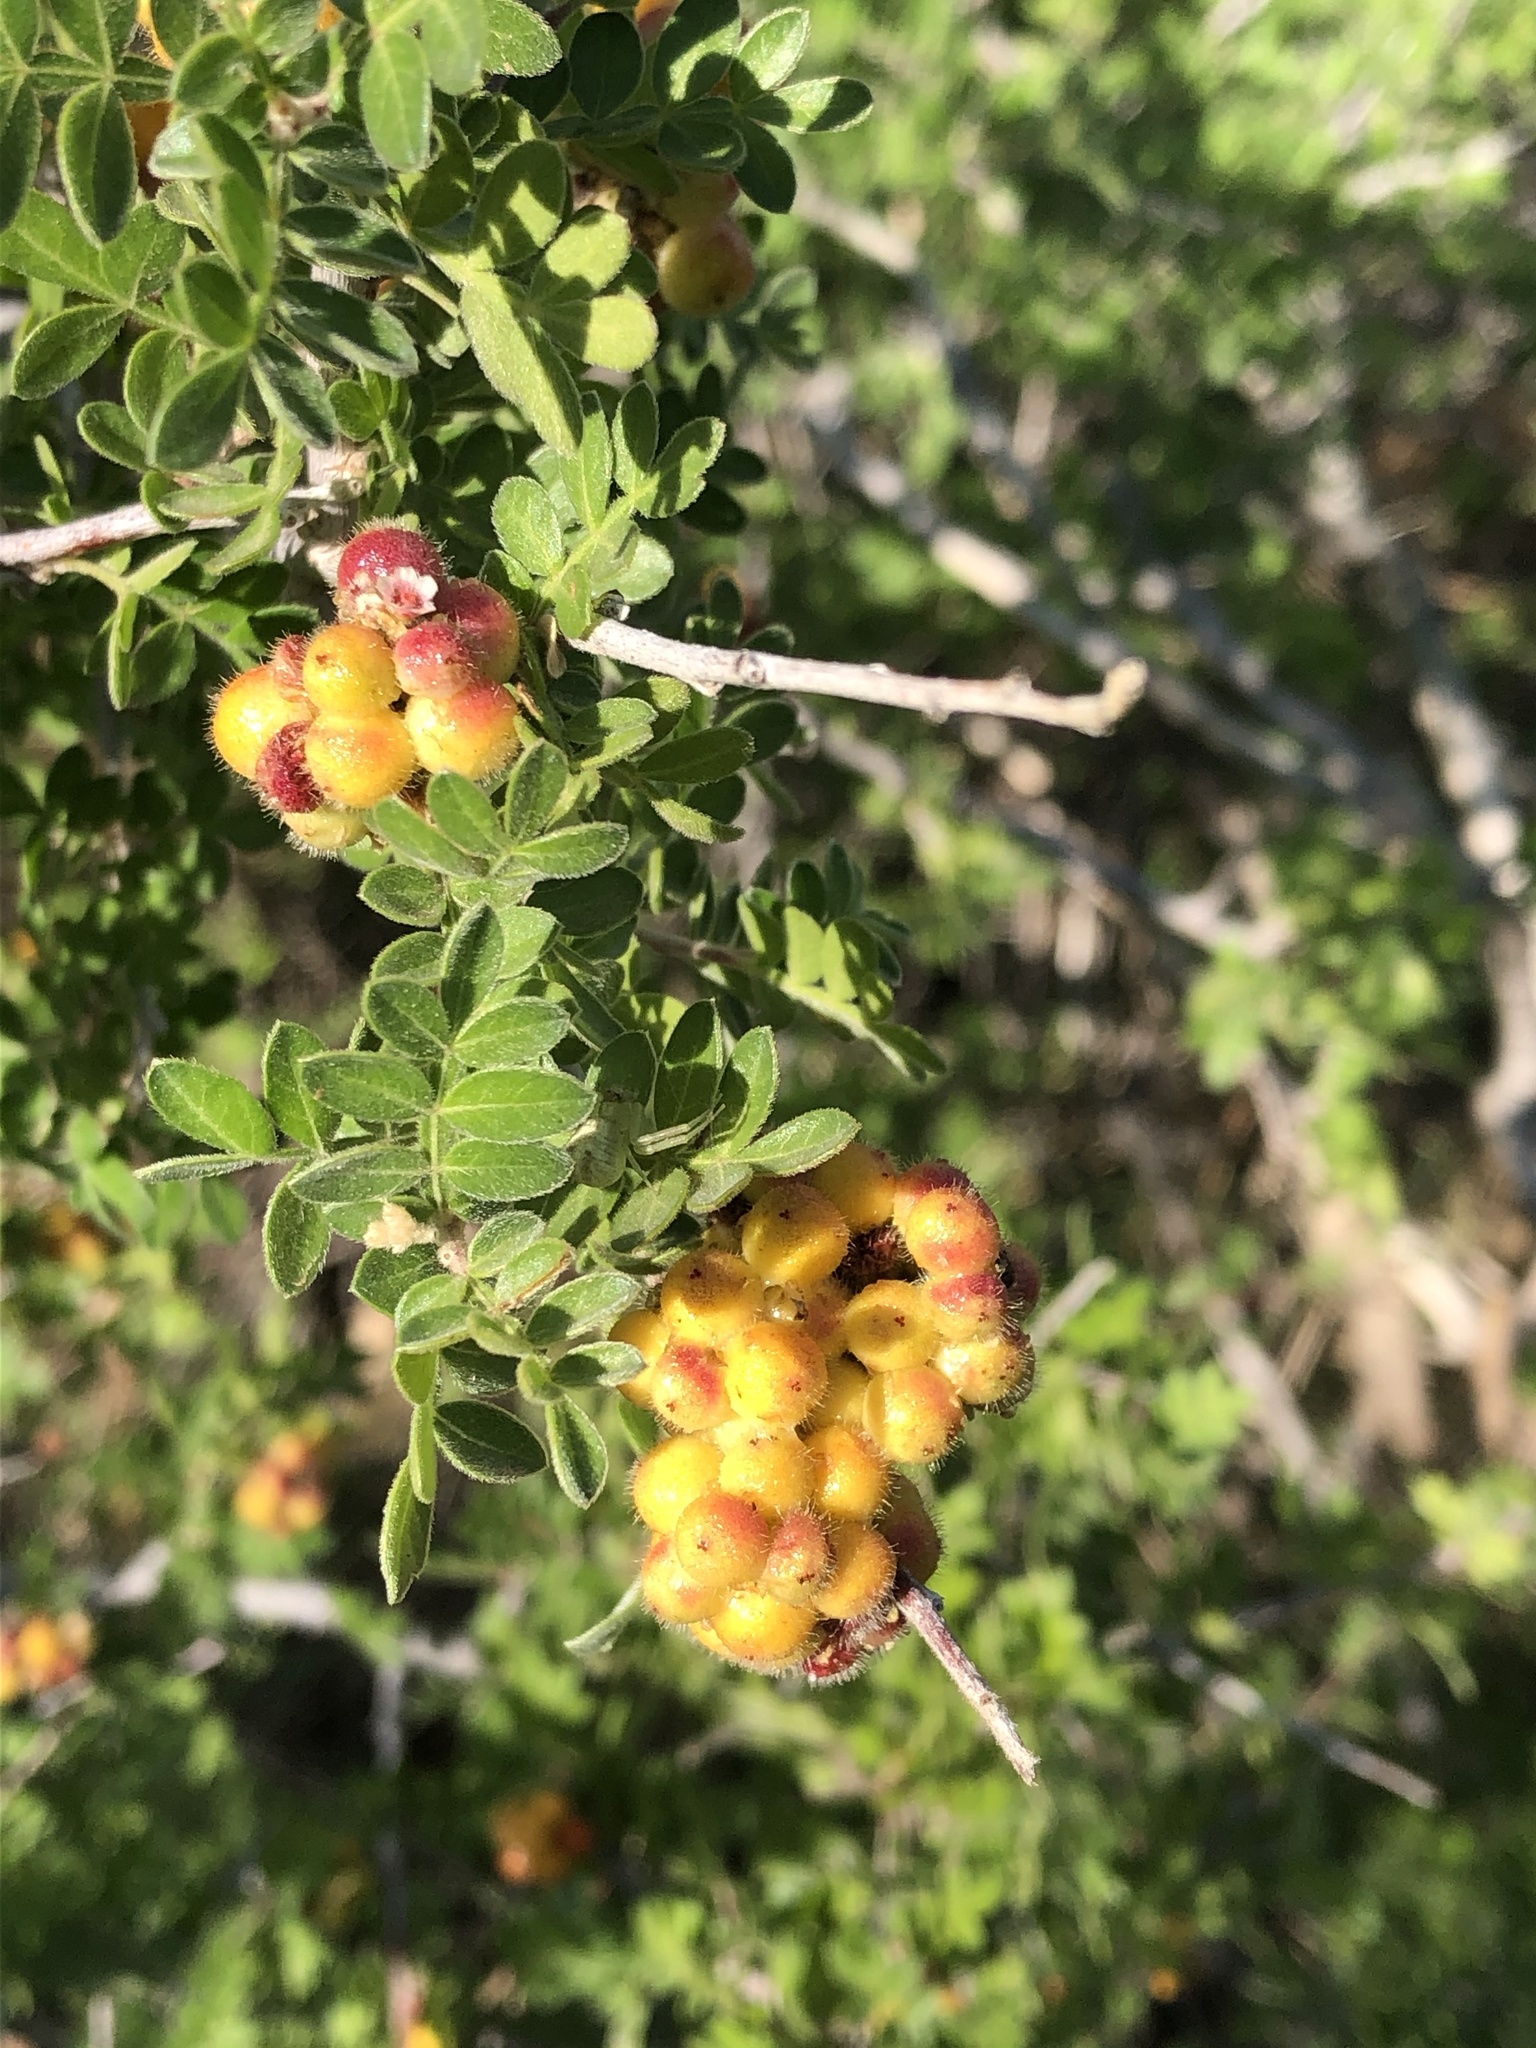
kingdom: Plantae
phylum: Tracheophyta
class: Magnoliopsida
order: Sapindales
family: Anacardiaceae
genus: Rhus
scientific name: Rhus microphylla
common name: Desert sumac
